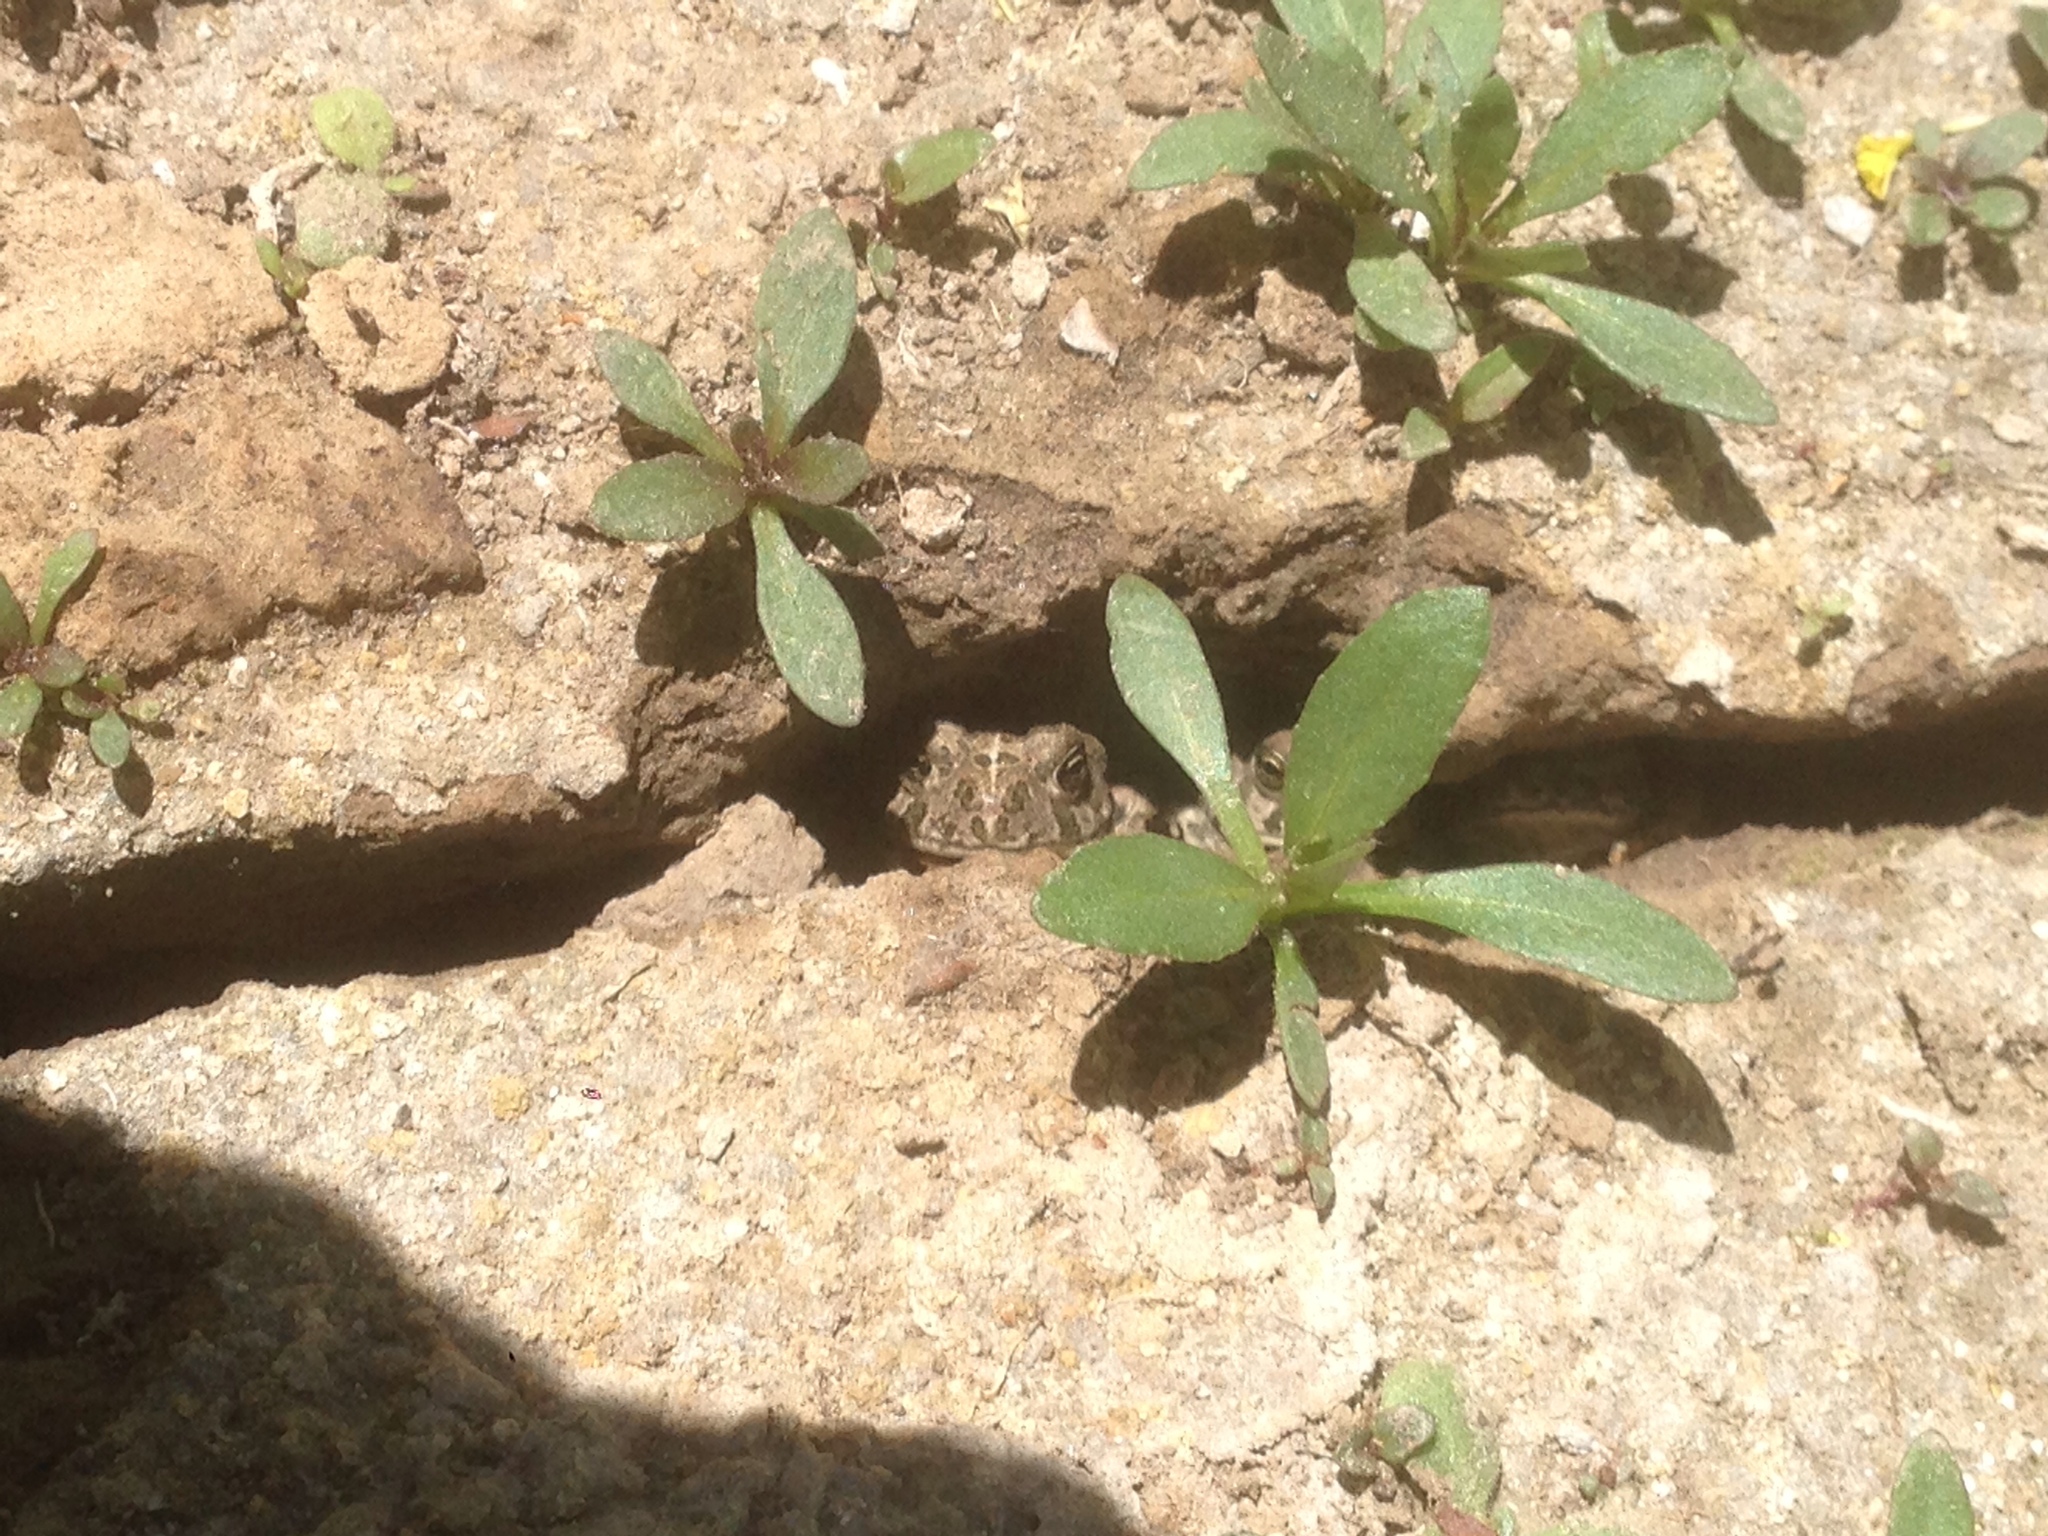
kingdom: Animalia
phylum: Chordata
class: Amphibia
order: Anura
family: Bufonidae
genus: Anaxyrus
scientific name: Anaxyrus boreas
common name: Western toad
